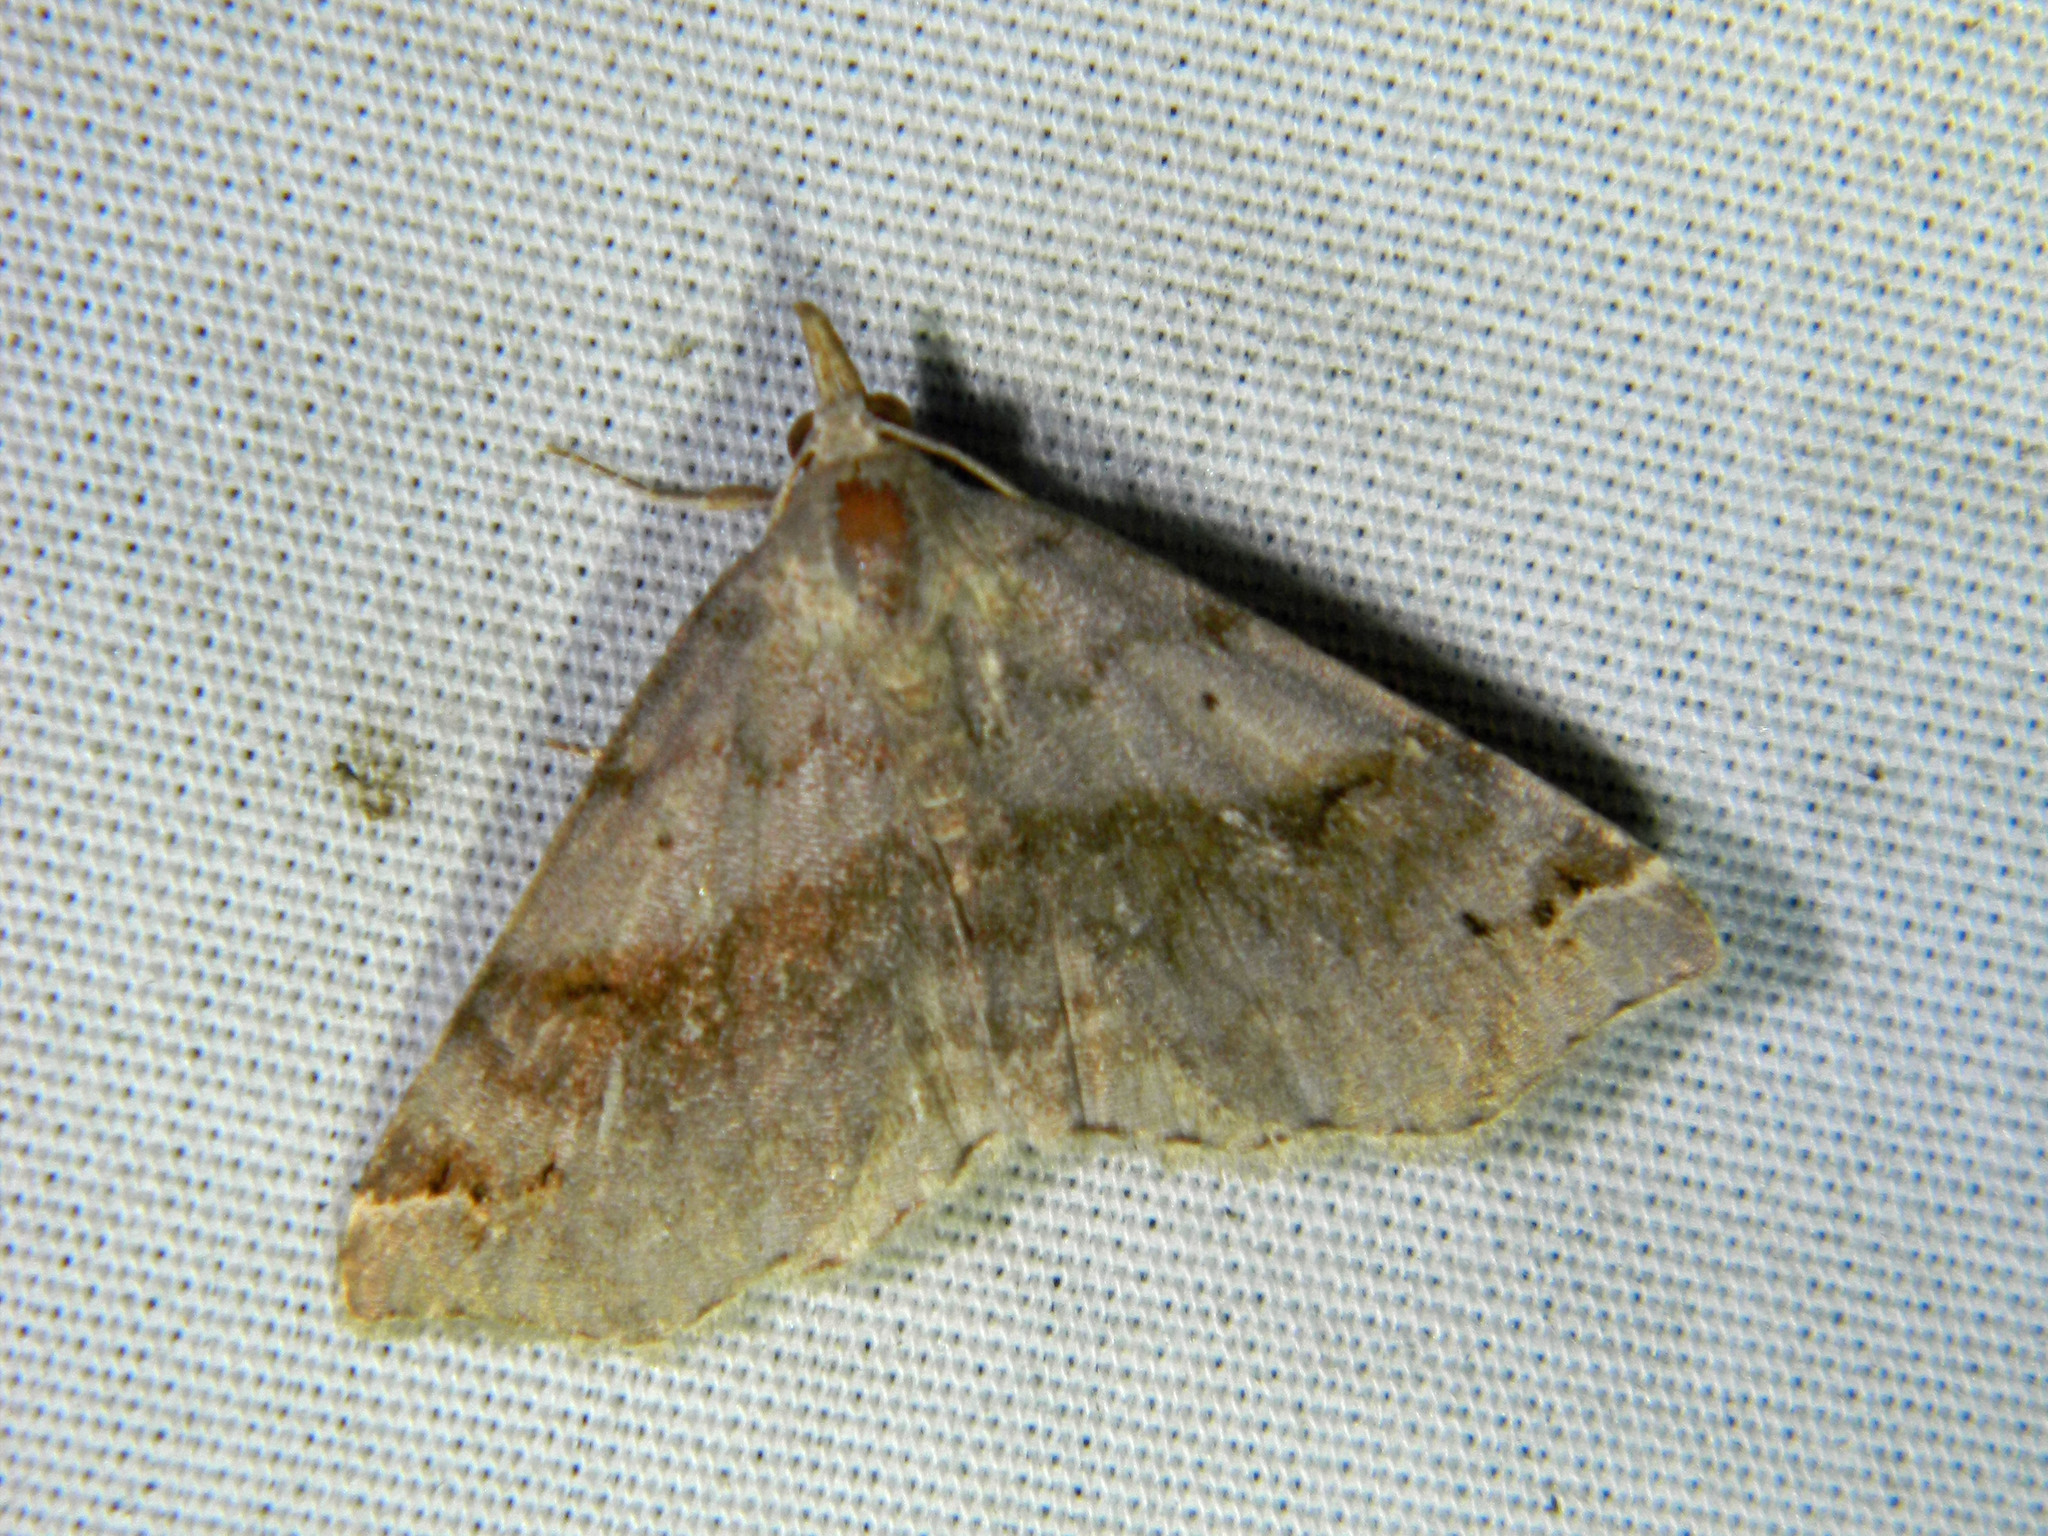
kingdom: Animalia
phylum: Arthropoda
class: Insecta
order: Lepidoptera
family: Erebidae
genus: Spargaloma
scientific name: Spargaloma sexpunctata
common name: Six-spotted gray
